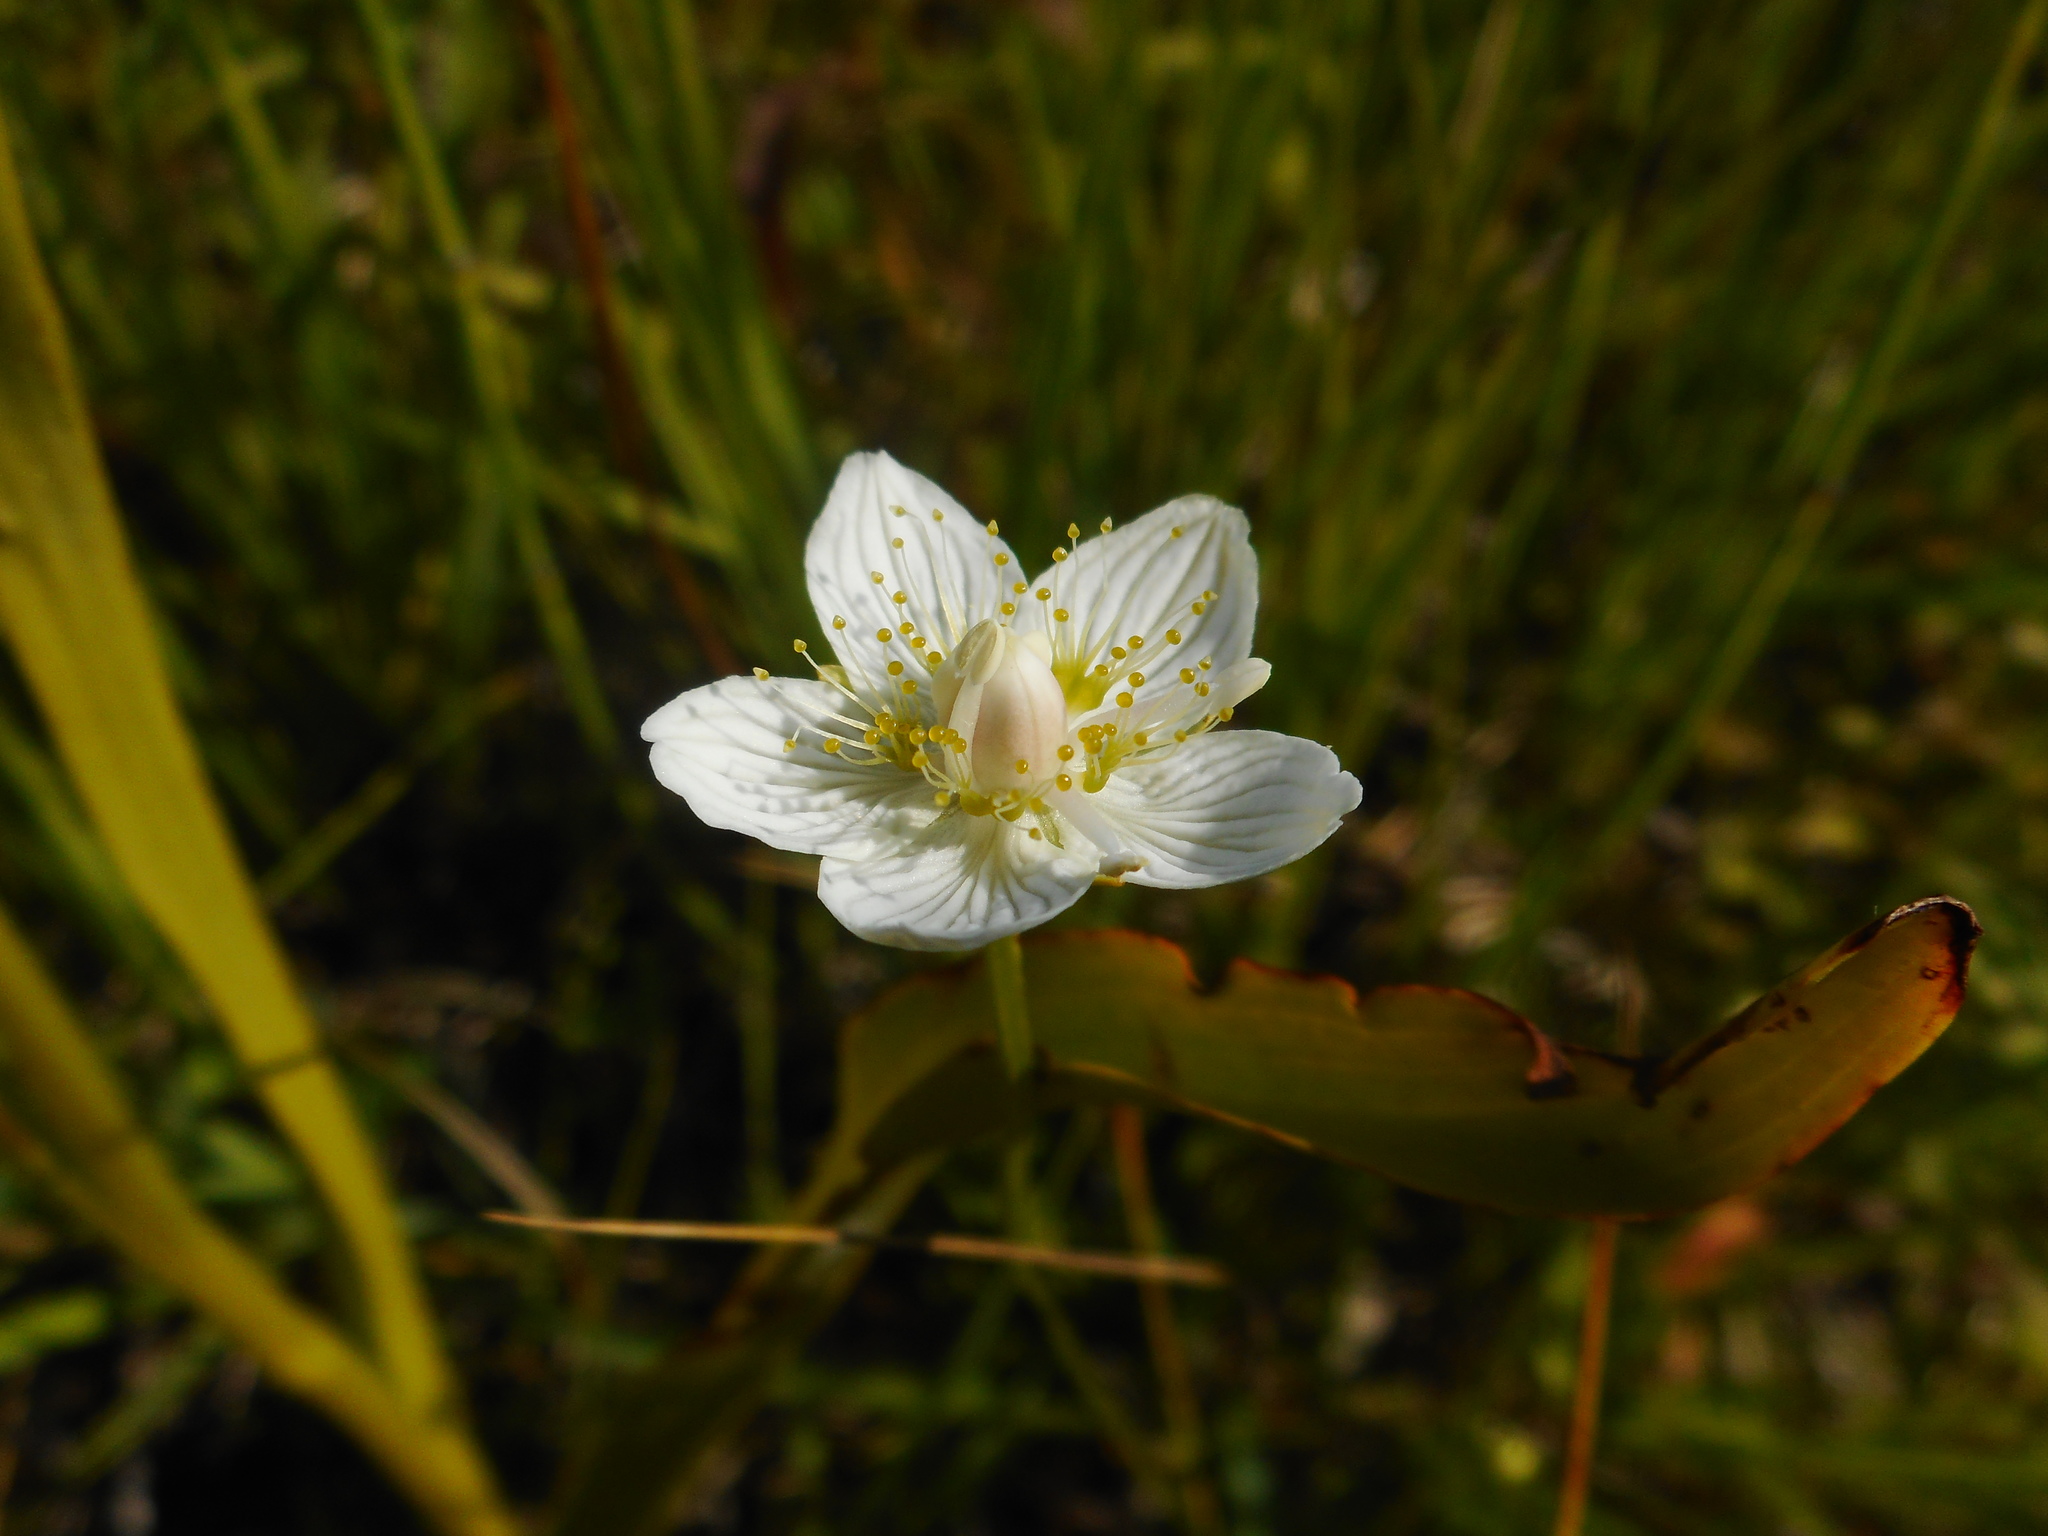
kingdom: Plantae
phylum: Tracheophyta
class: Magnoliopsida
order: Celastrales
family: Parnassiaceae
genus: Parnassia
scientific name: Parnassia palustris
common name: Grass-of-parnassus
